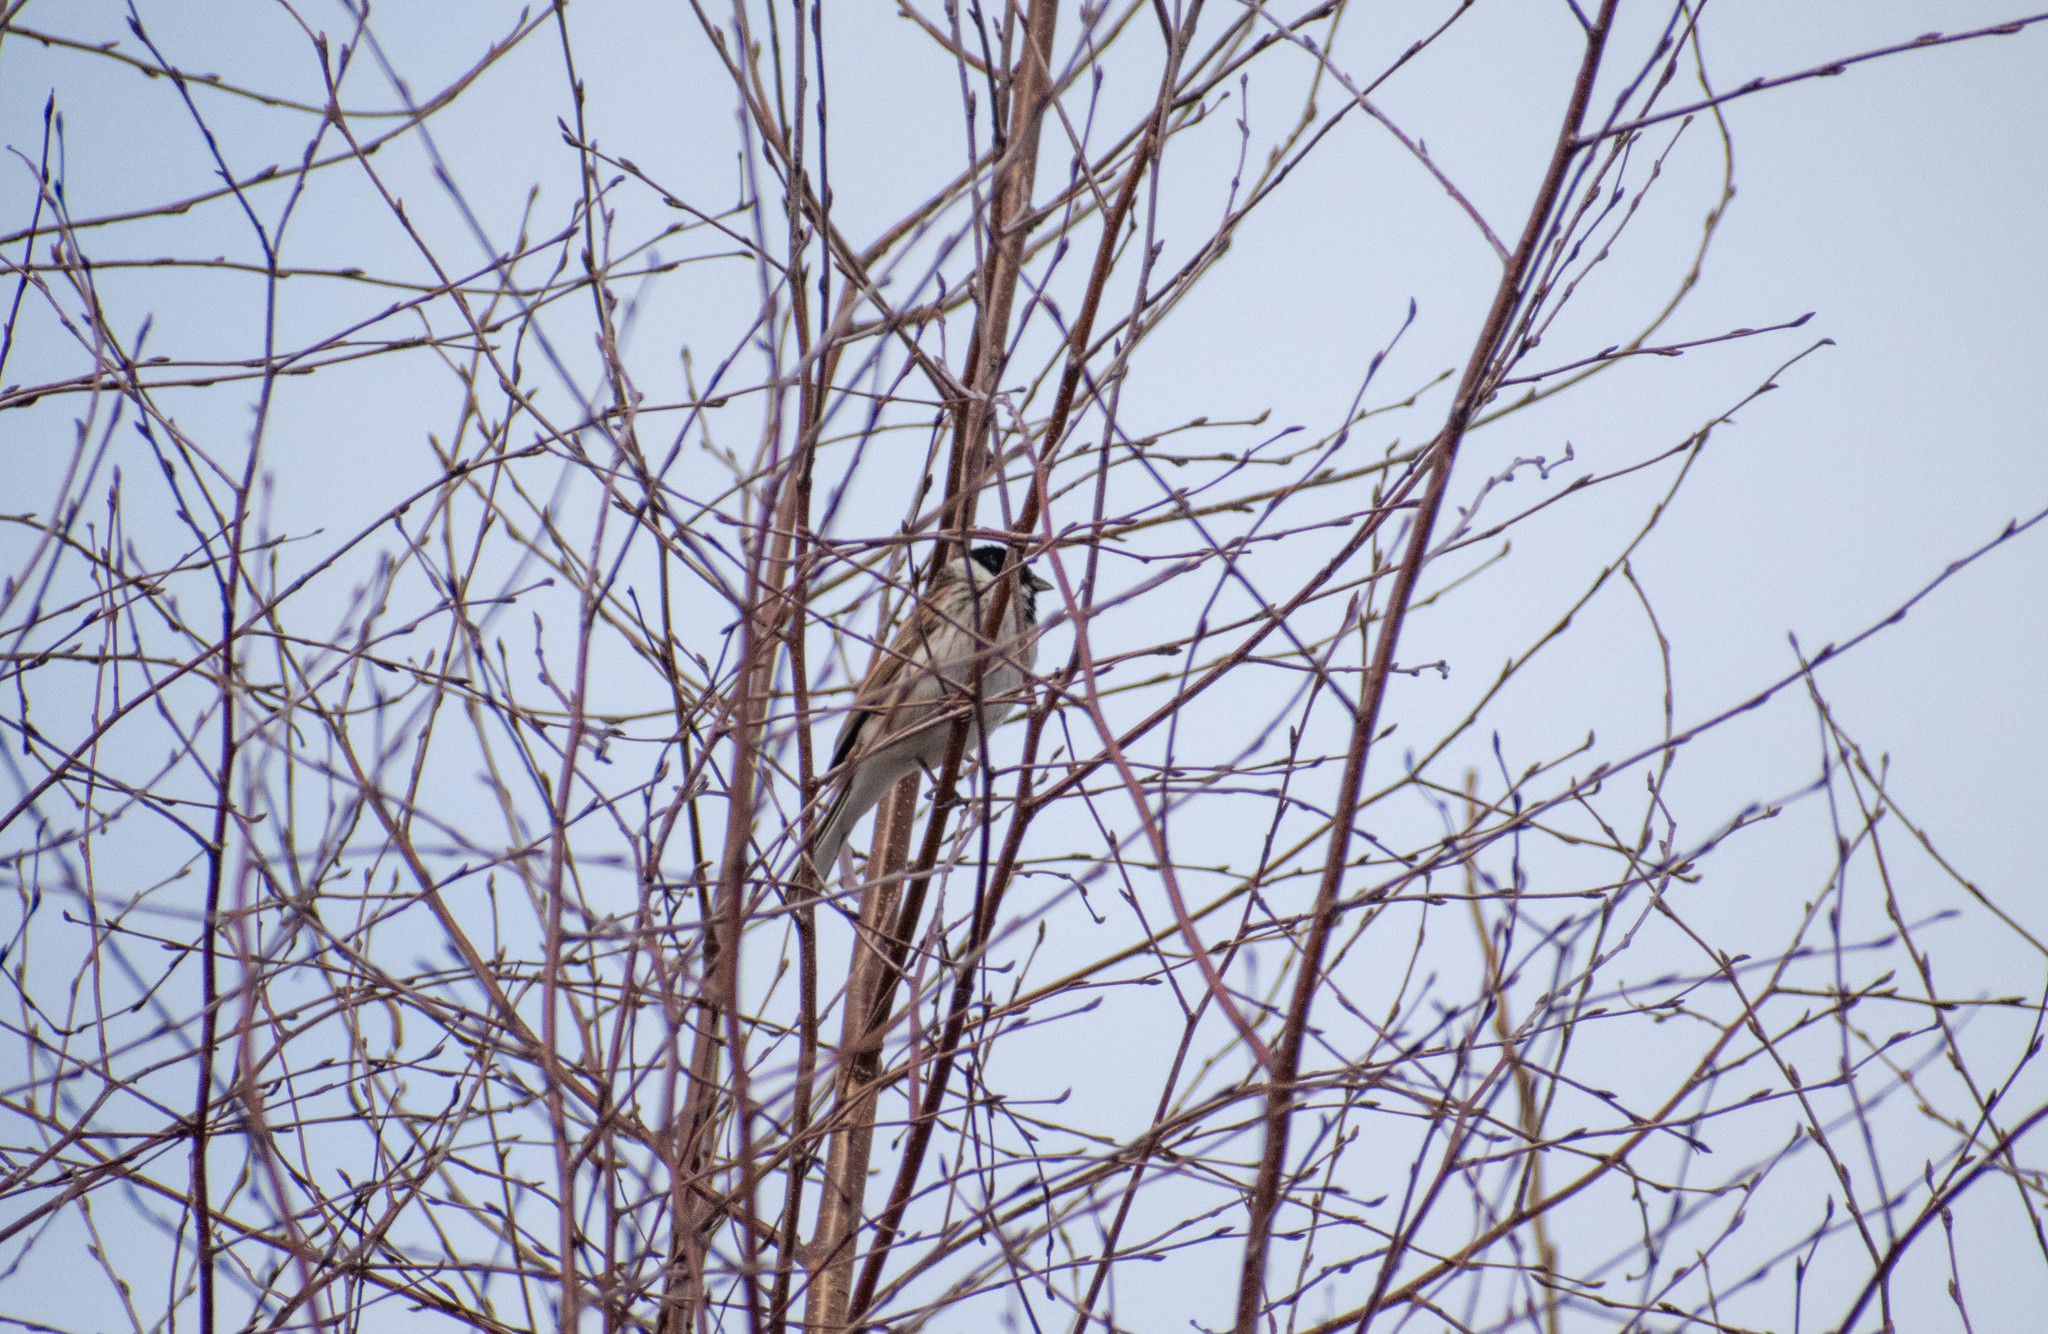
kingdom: Animalia
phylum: Chordata
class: Aves
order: Passeriformes
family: Emberizidae
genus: Emberiza
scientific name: Emberiza schoeniclus
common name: Reed bunting
